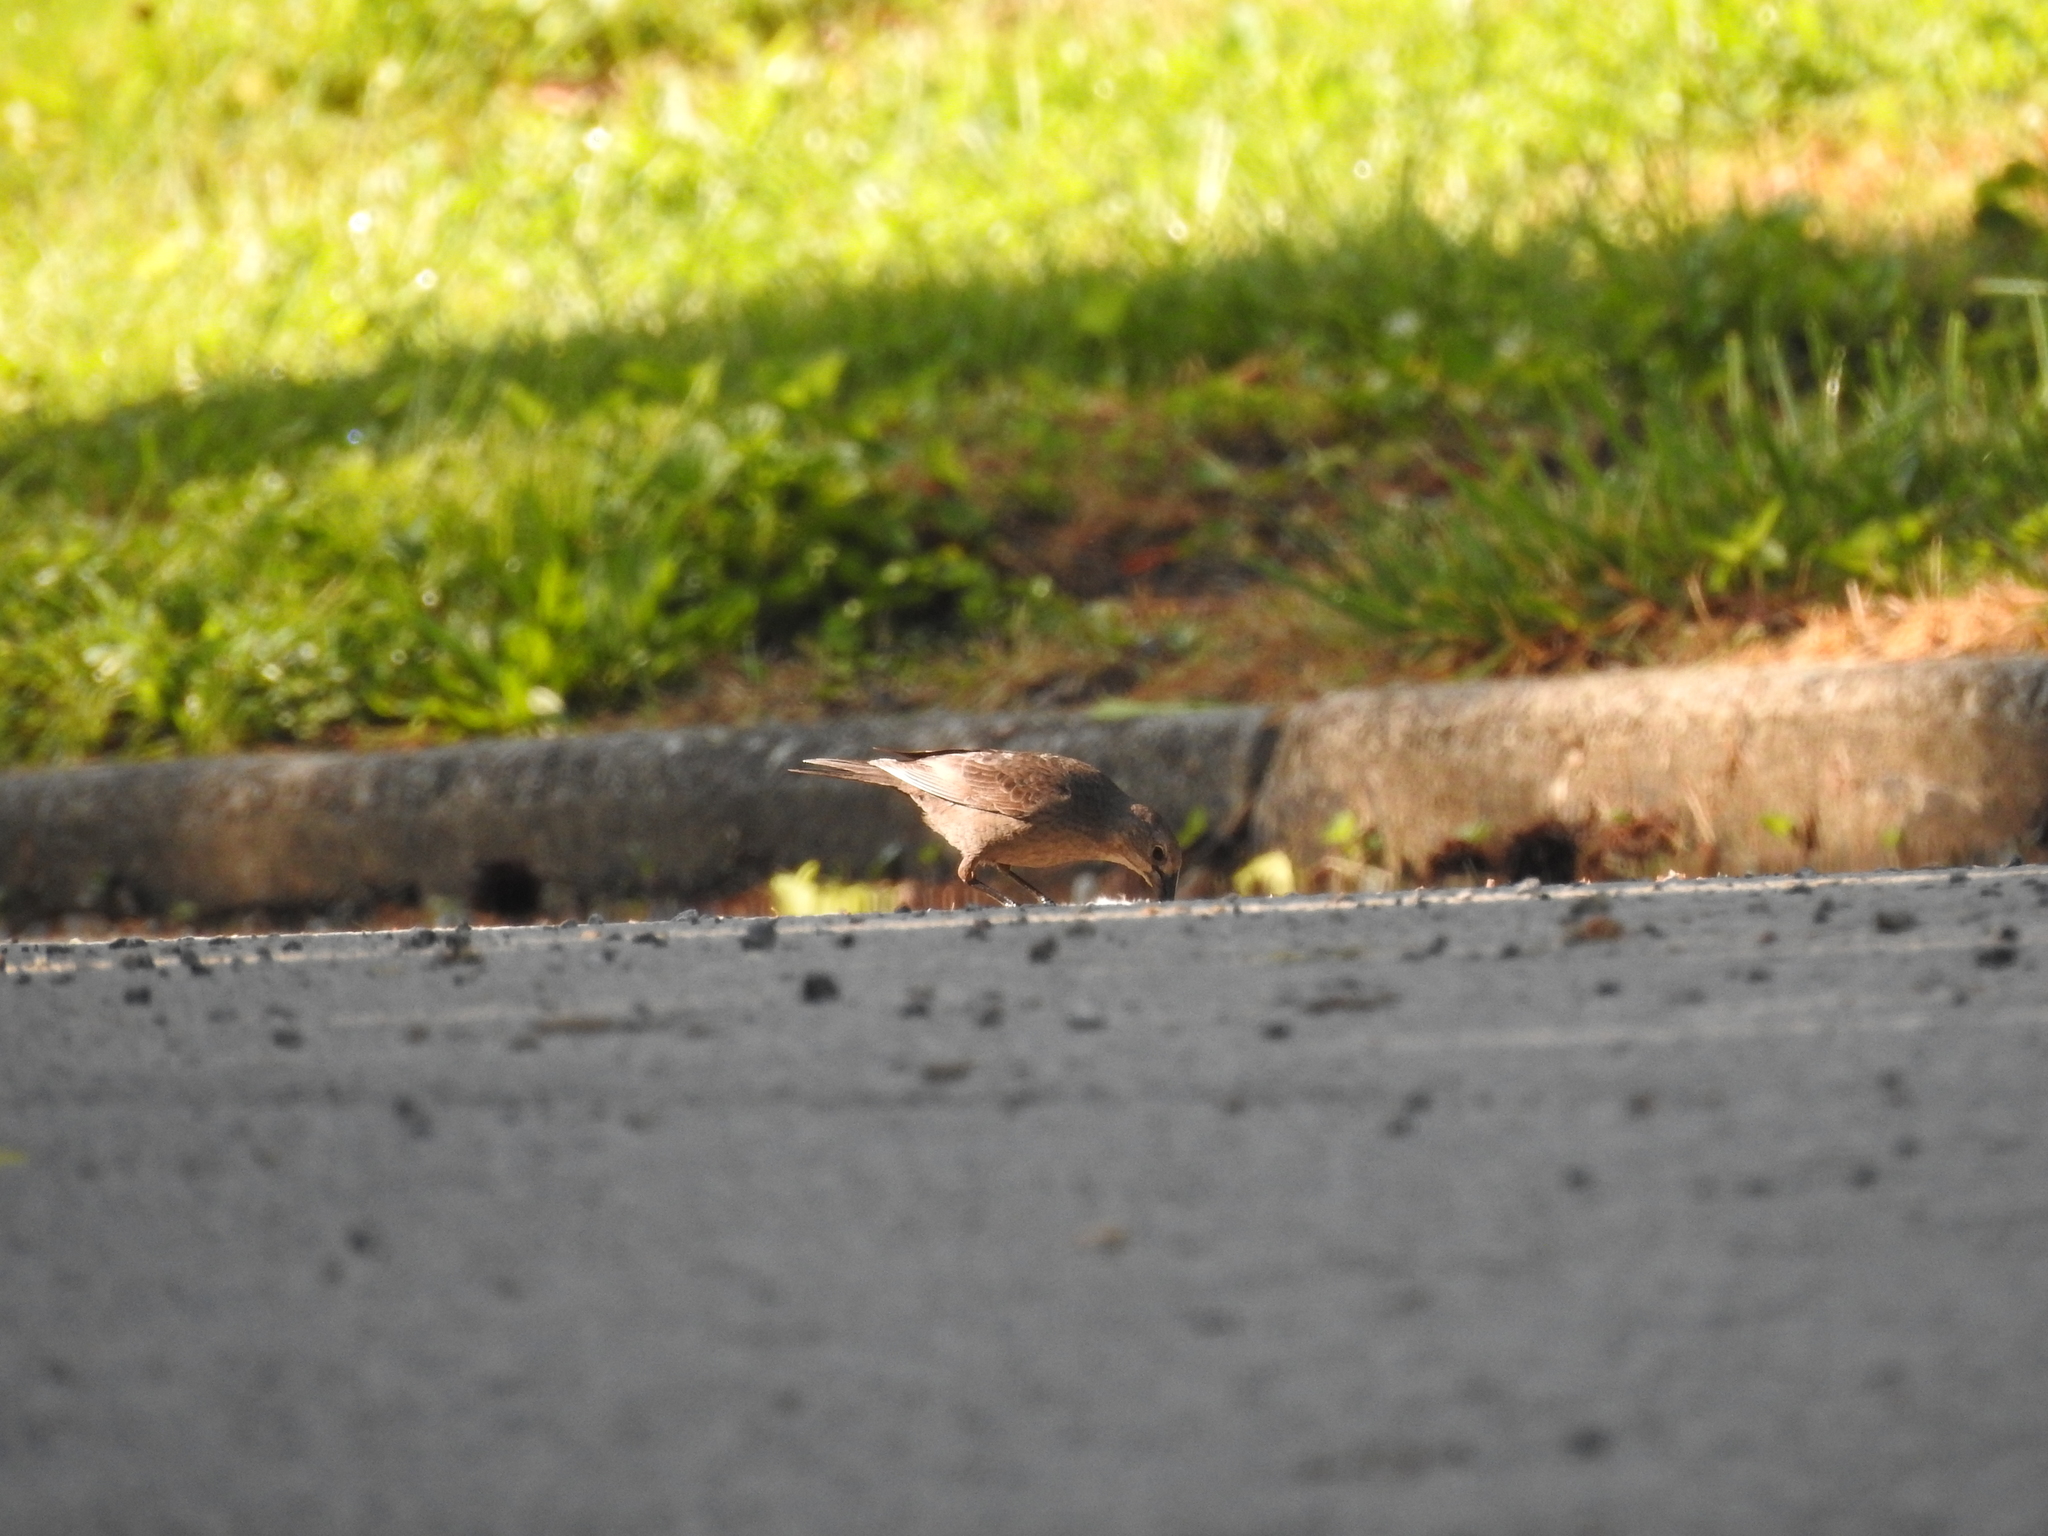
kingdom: Animalia
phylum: Chordata
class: Aves
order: Passeriformes
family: Icteridae
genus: Molothrus
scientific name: Molothrus ater
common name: Brown-headed cowbird
